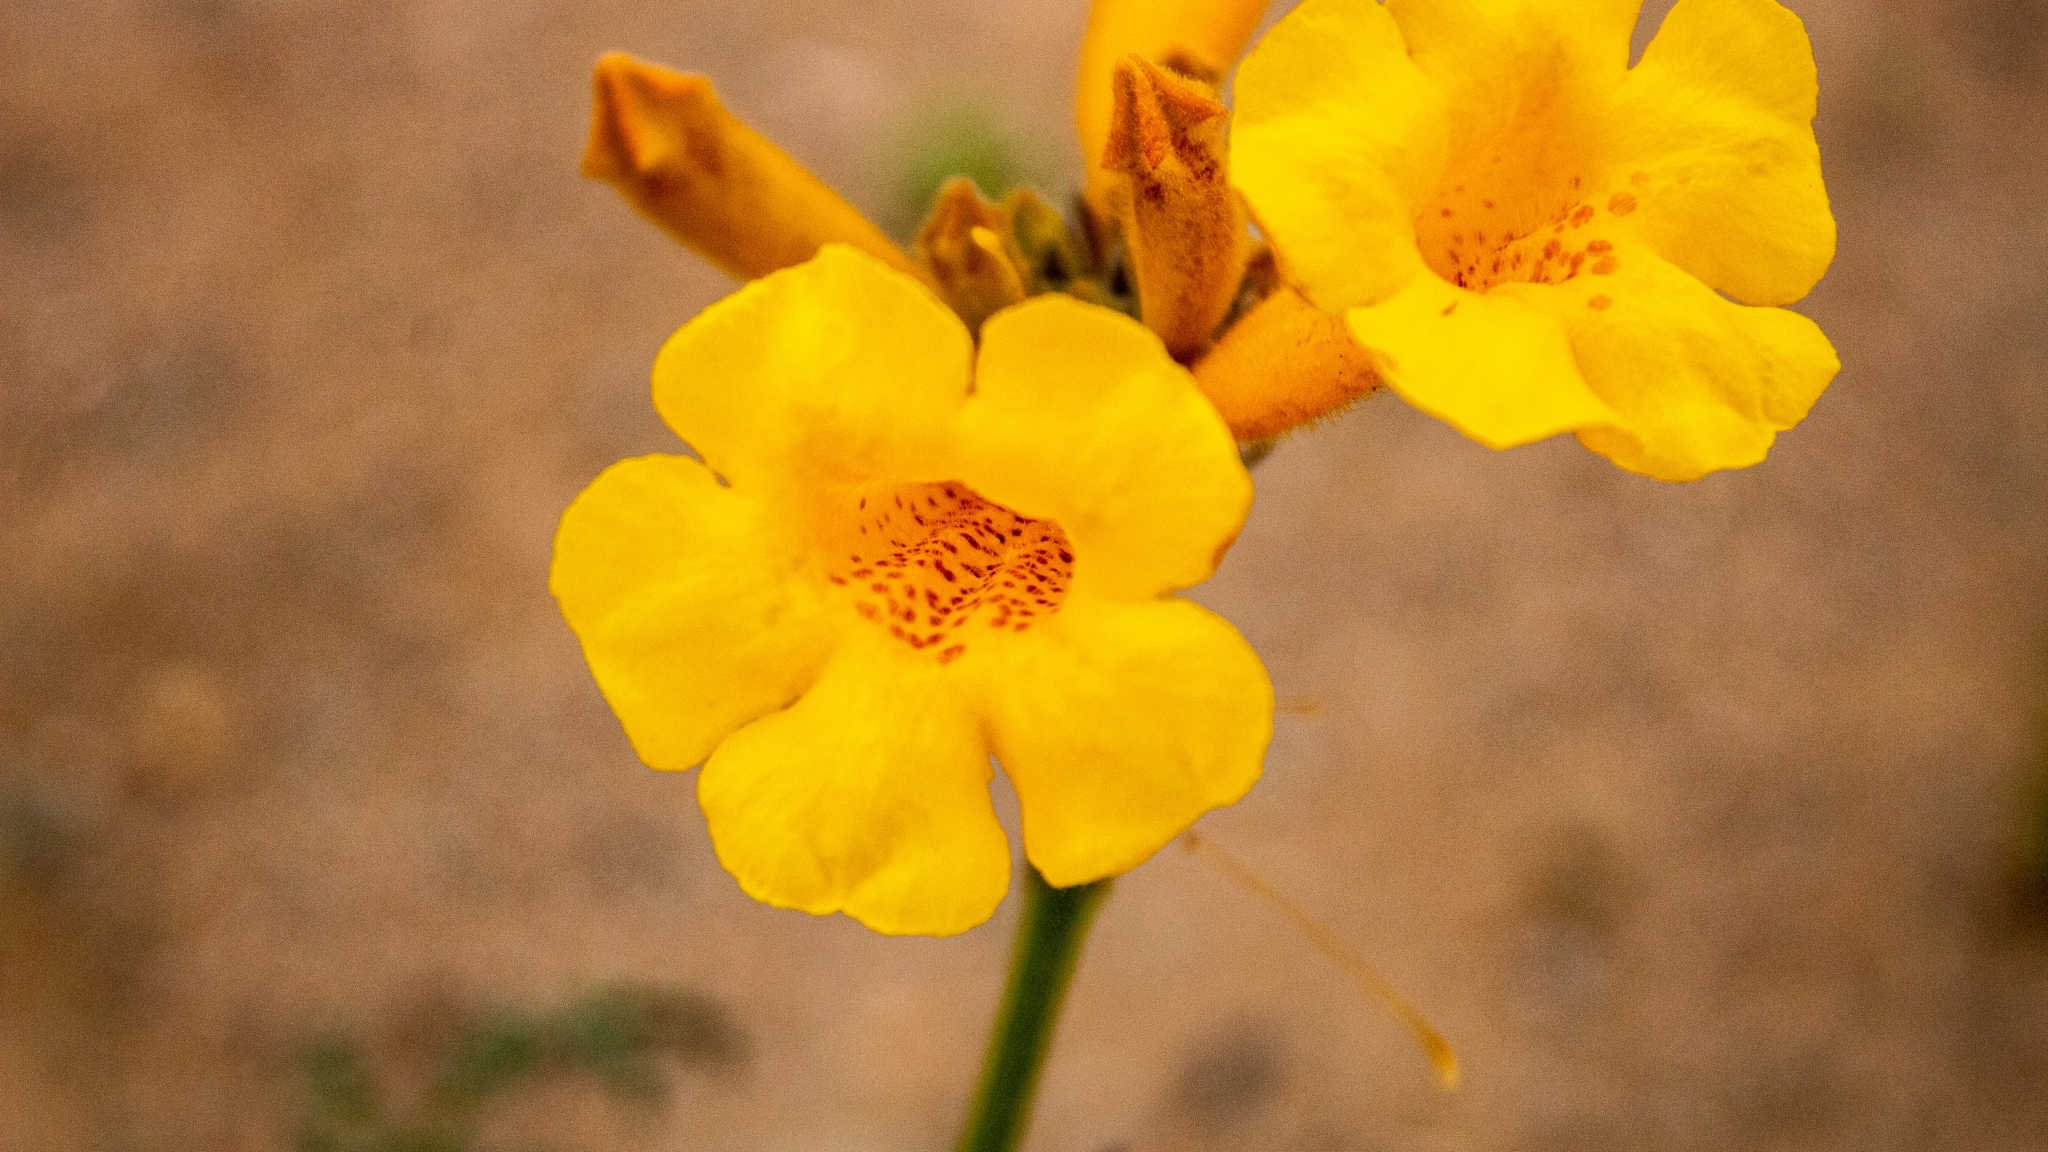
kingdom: Plantae
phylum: Tracheophyta
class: Magnoliopsida
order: Lamiales
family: Bignoniaceae
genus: Argylia
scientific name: Argylia radiata
